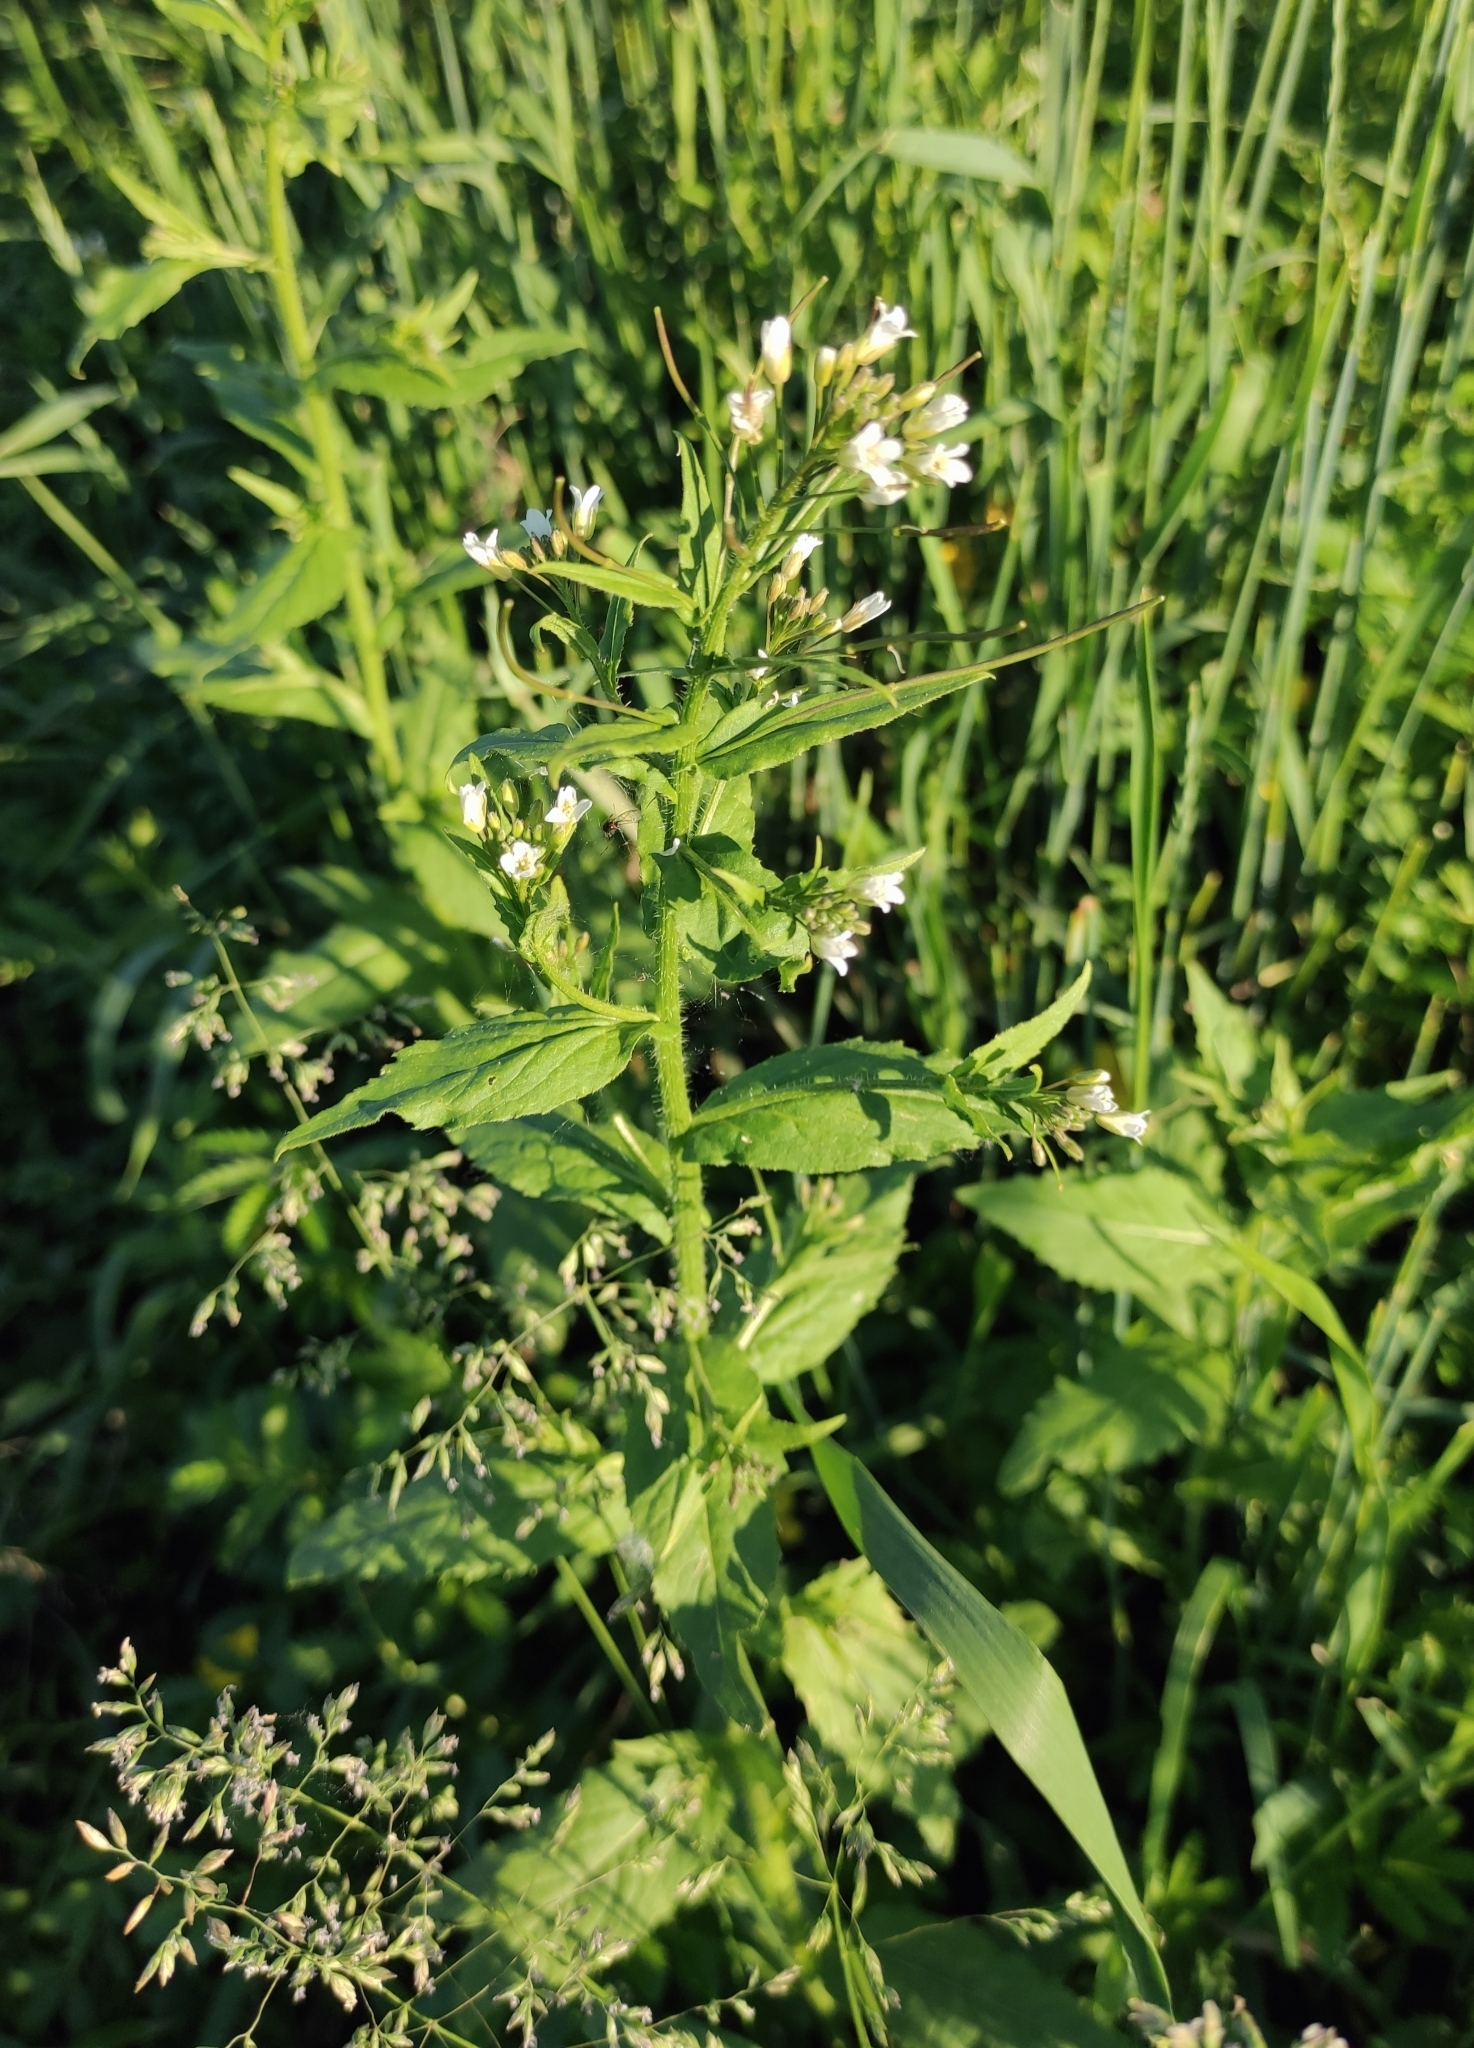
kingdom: Plantae
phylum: Tracheophyta
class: Magnoliopsida
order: Brassicales
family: Brassicaceae
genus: Catolobus
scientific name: Catolobus pendulus
